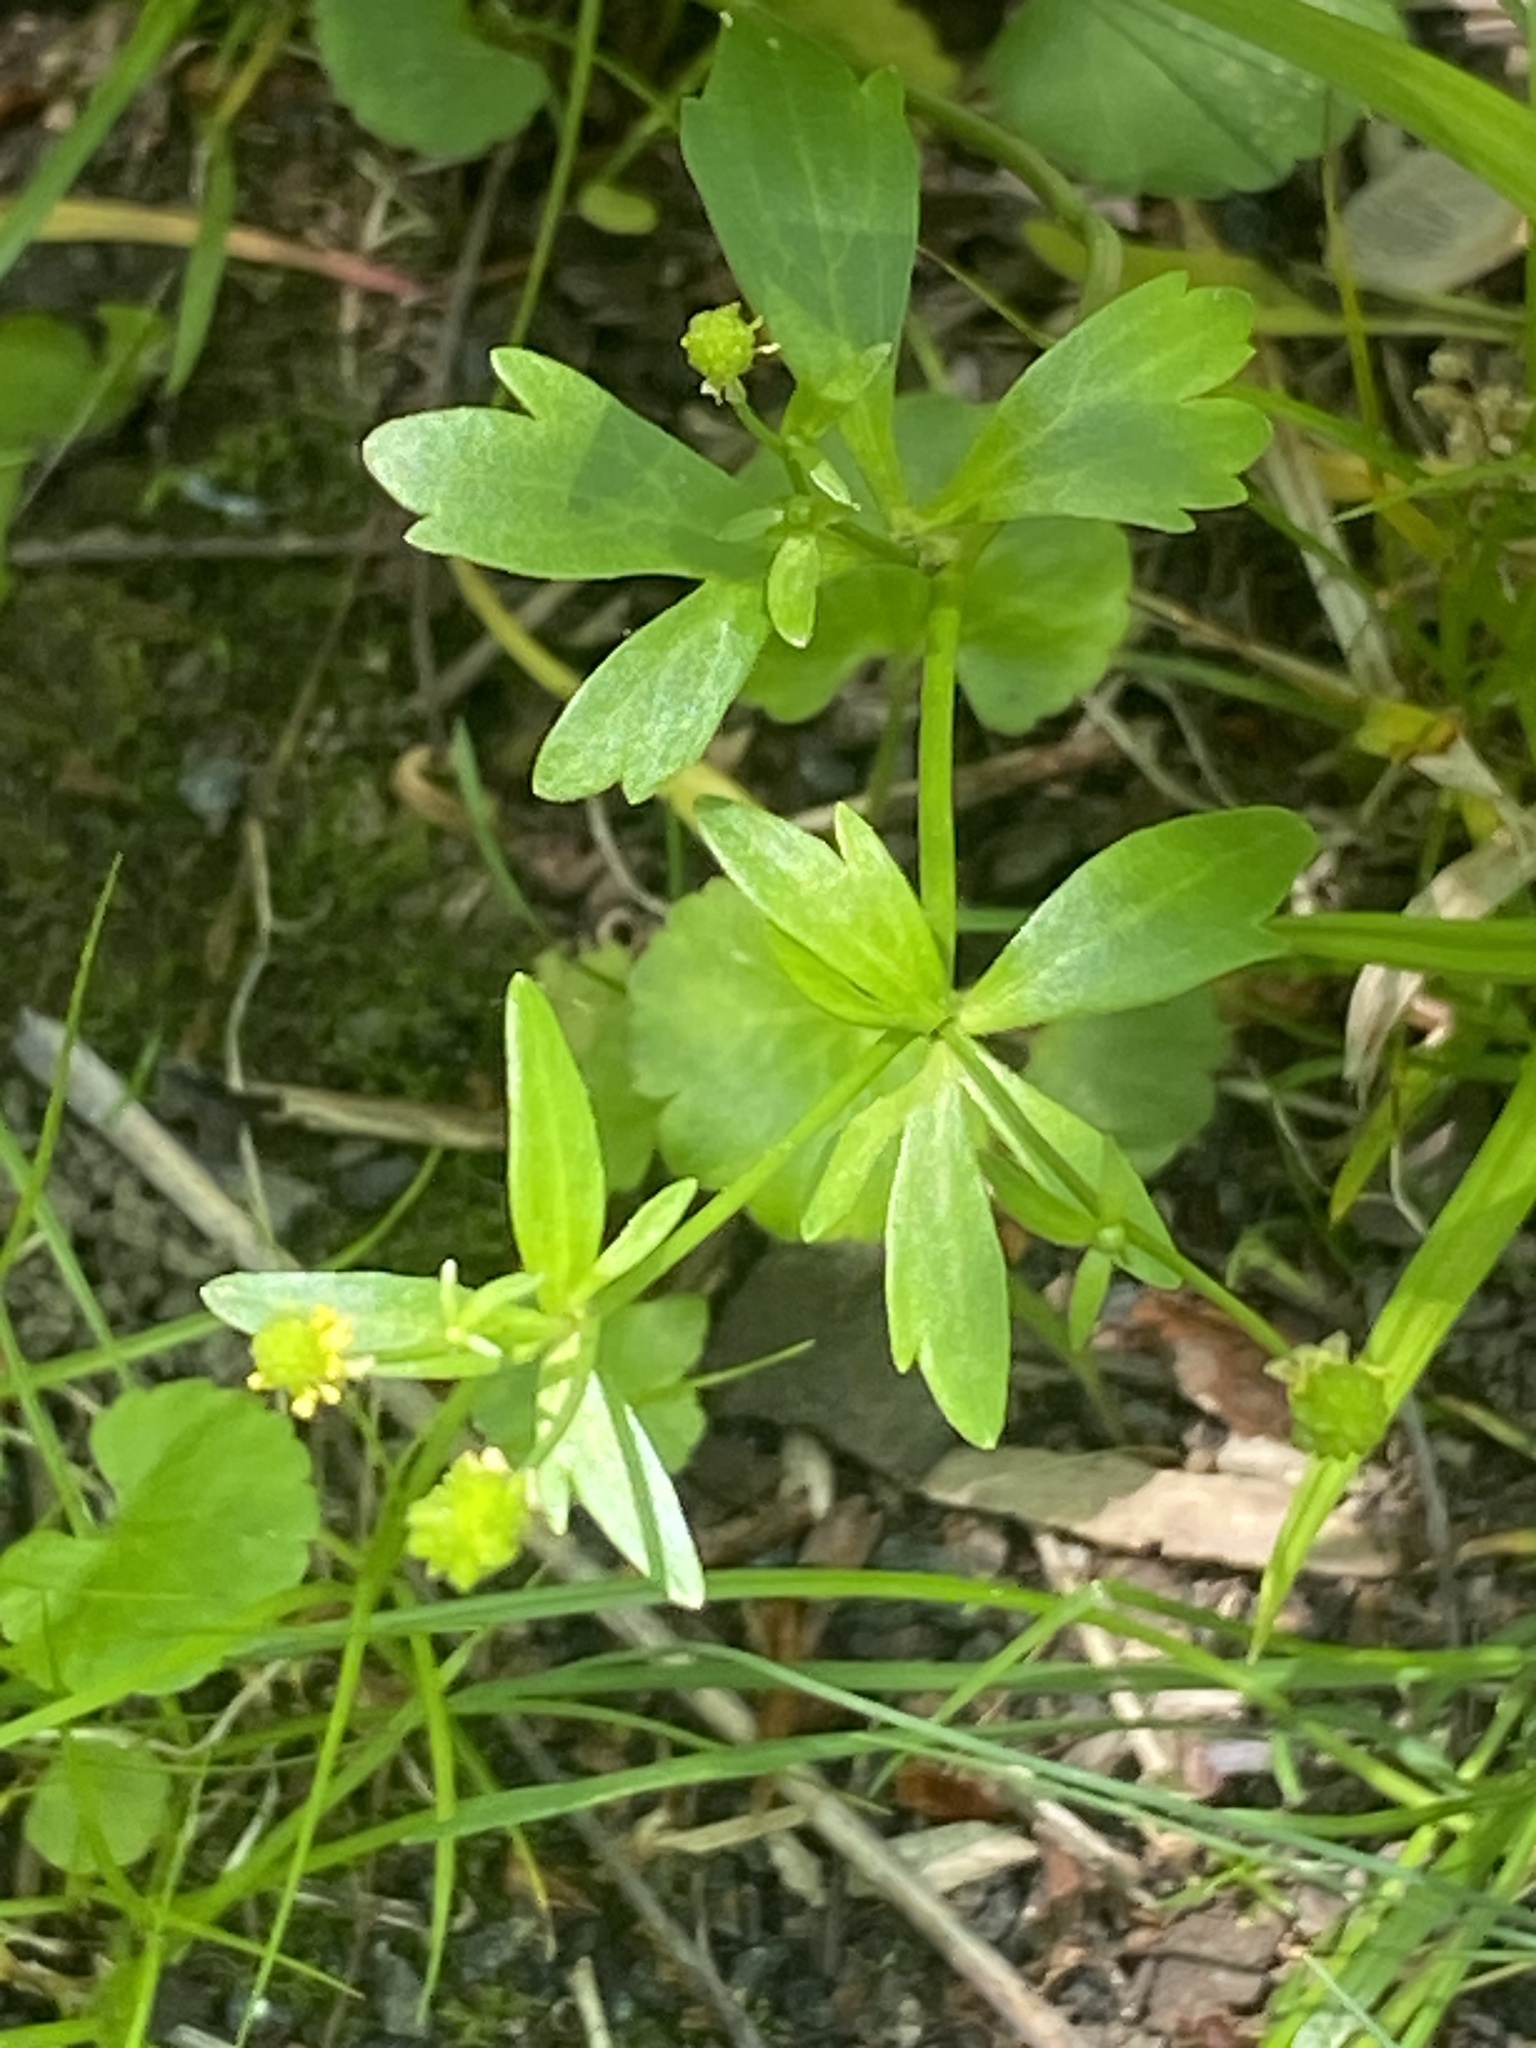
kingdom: Plantae
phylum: Tracheophyta
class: Magnoliopsida
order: Ranunculales
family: Ranunculaceae
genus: Ranunculus
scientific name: Ranunculus abortivus
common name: Early wood buttercup
